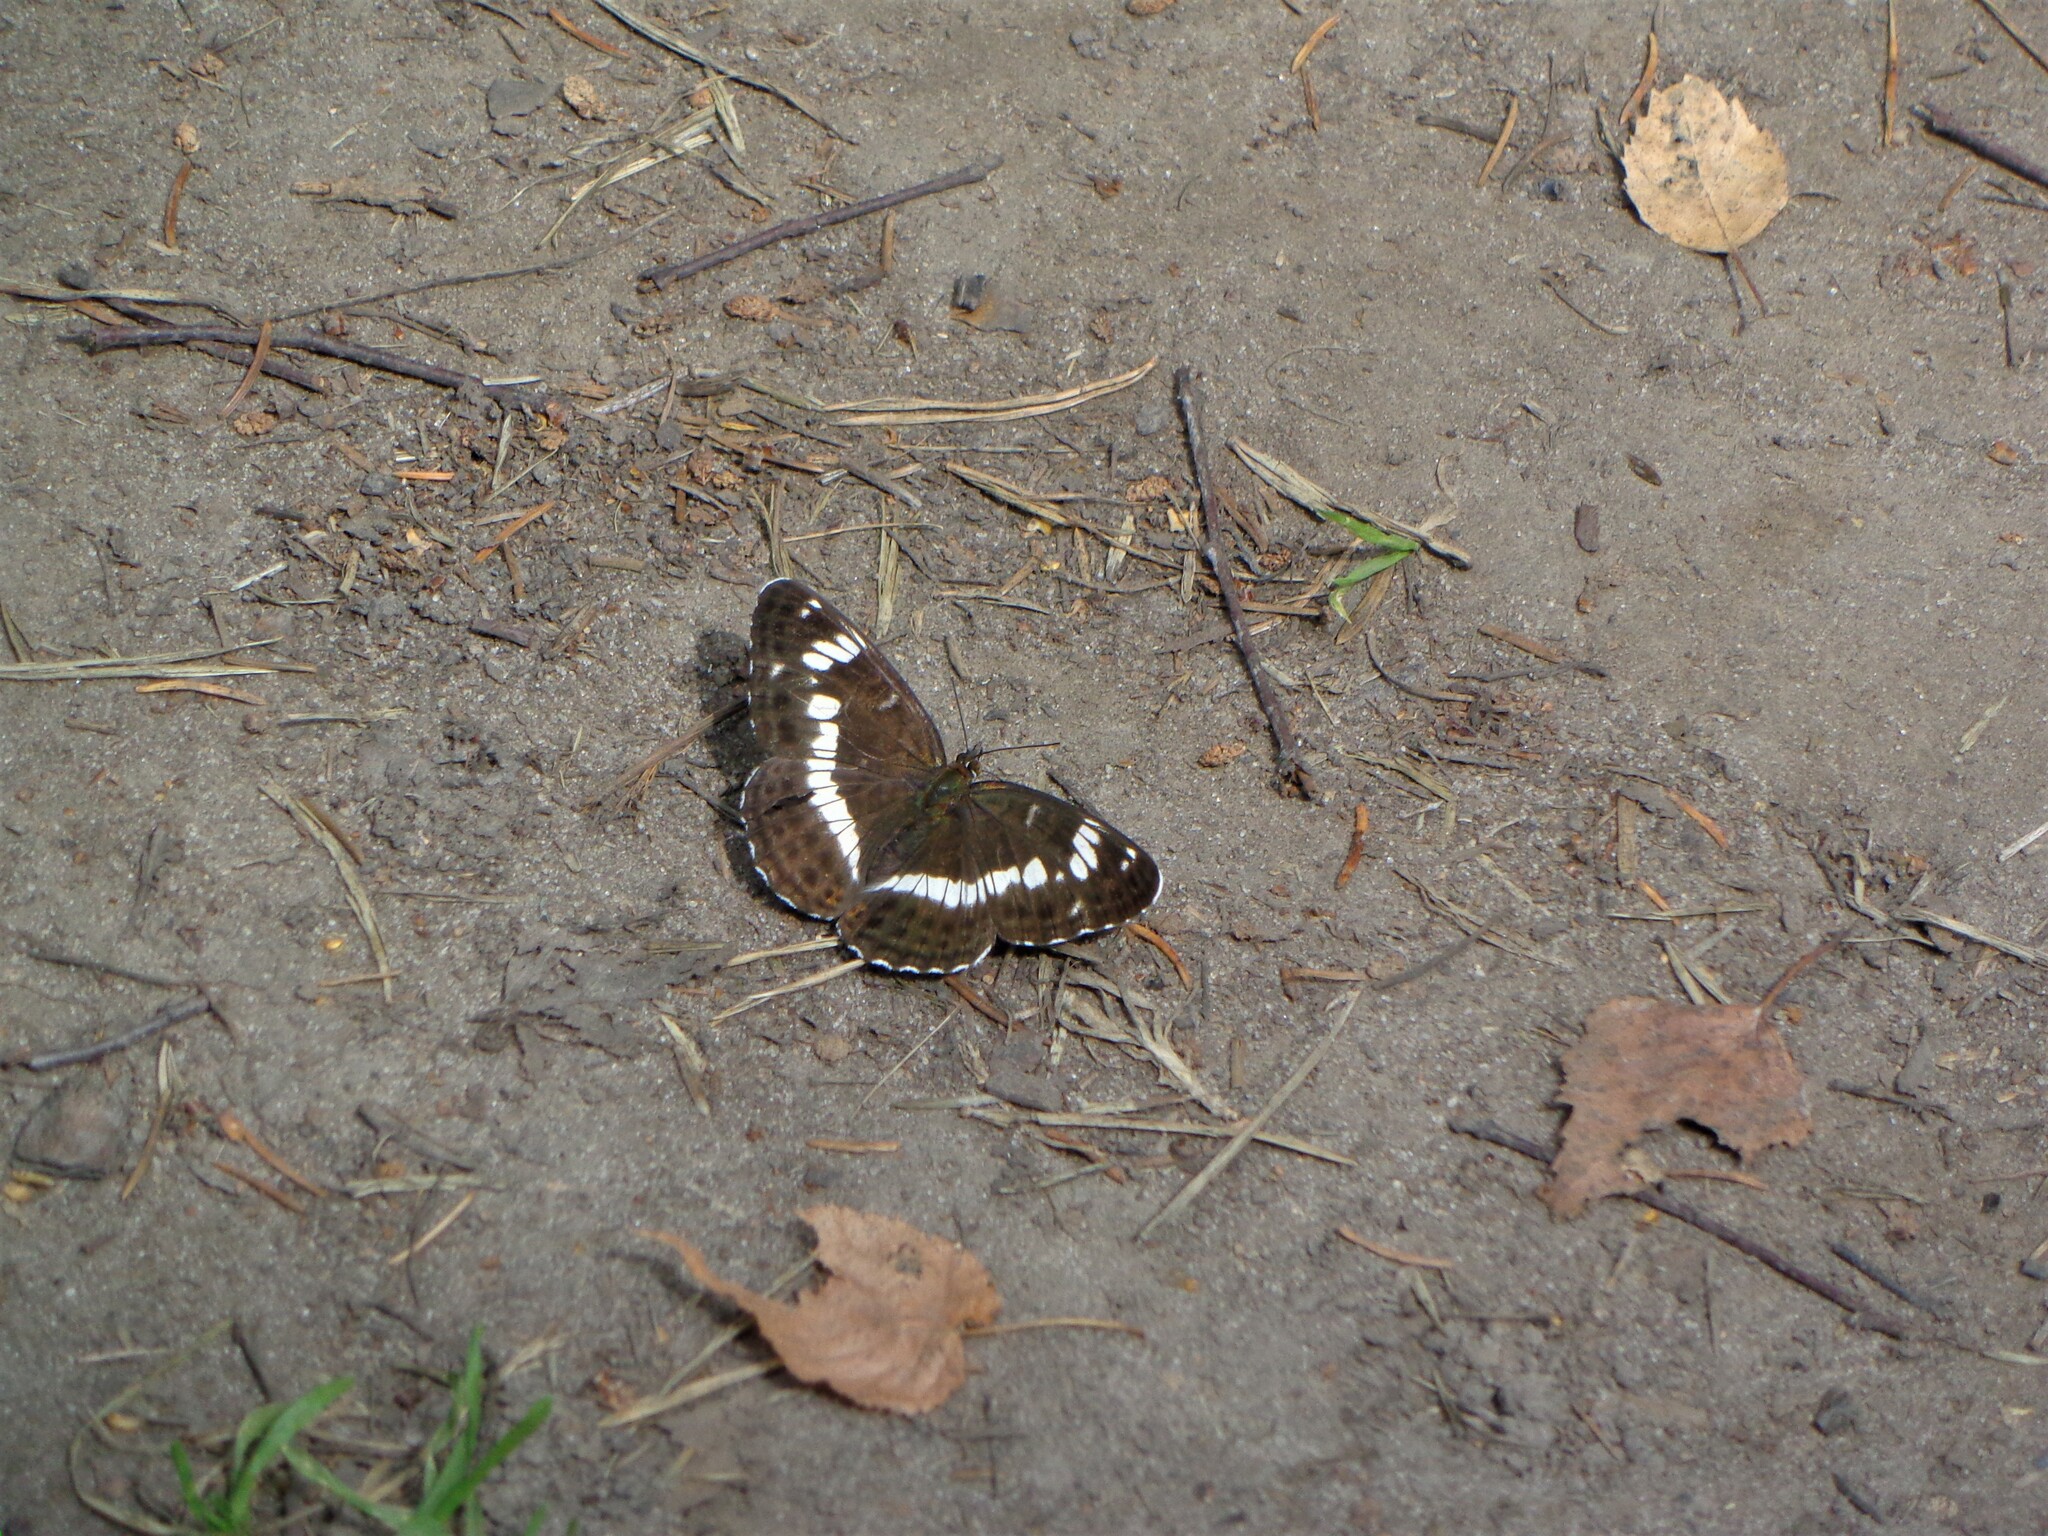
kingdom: Animalia
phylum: Arthropoda
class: Insecta
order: Lepidoptera
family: Nymphalidae
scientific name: Nymphalidae
